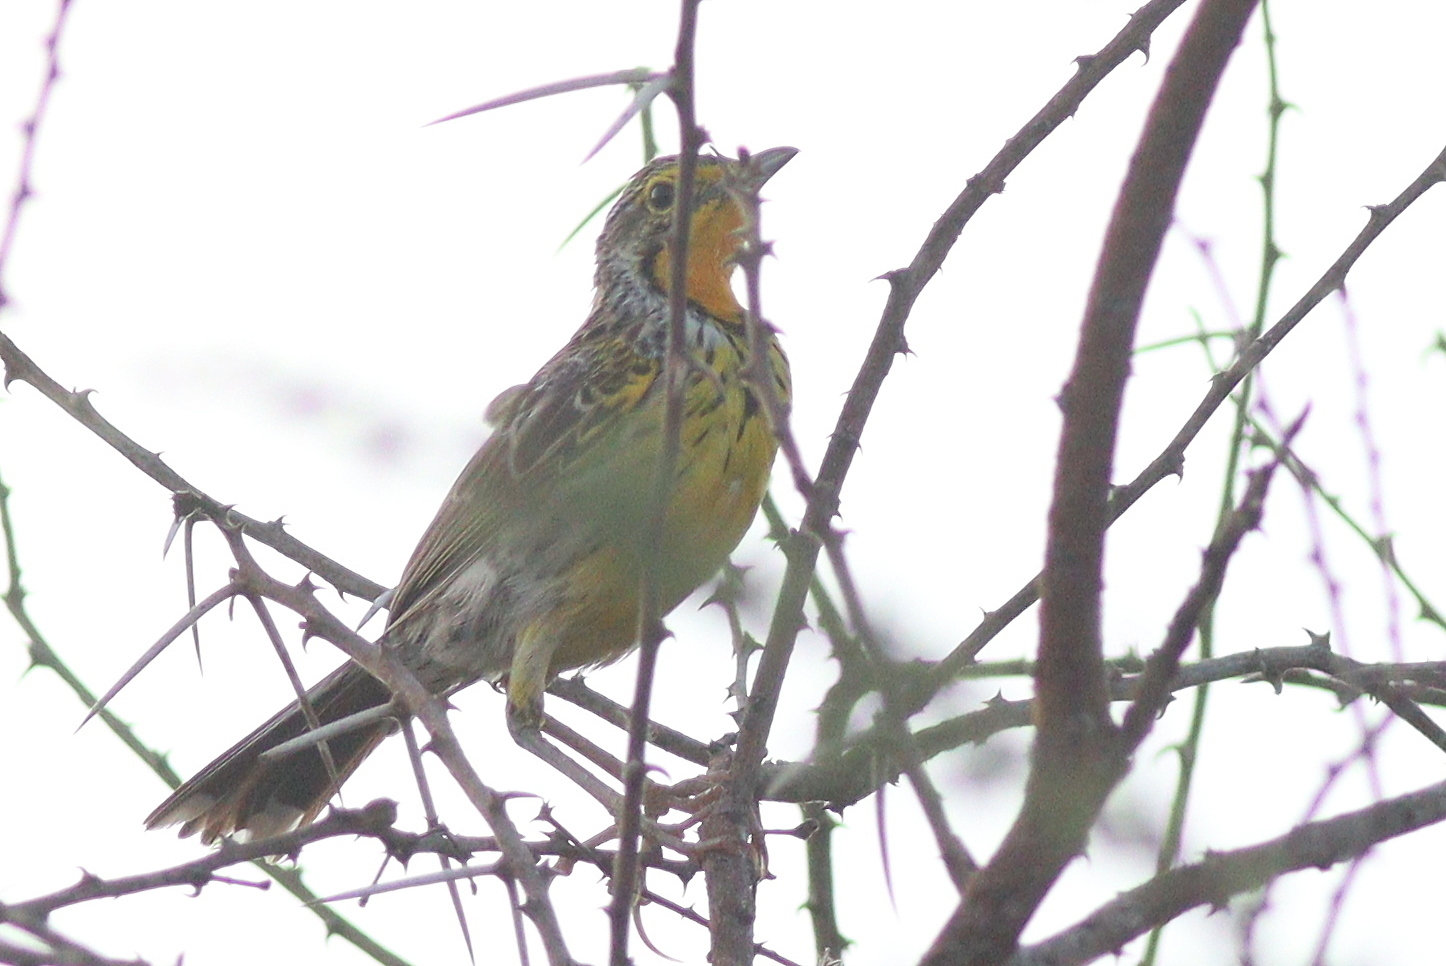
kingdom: Animalia
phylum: Chordata
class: Aves
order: Passeriformes
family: Motacillidae
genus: Macronyx
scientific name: Macronyx aurantiigula
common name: Pangani longclaw
